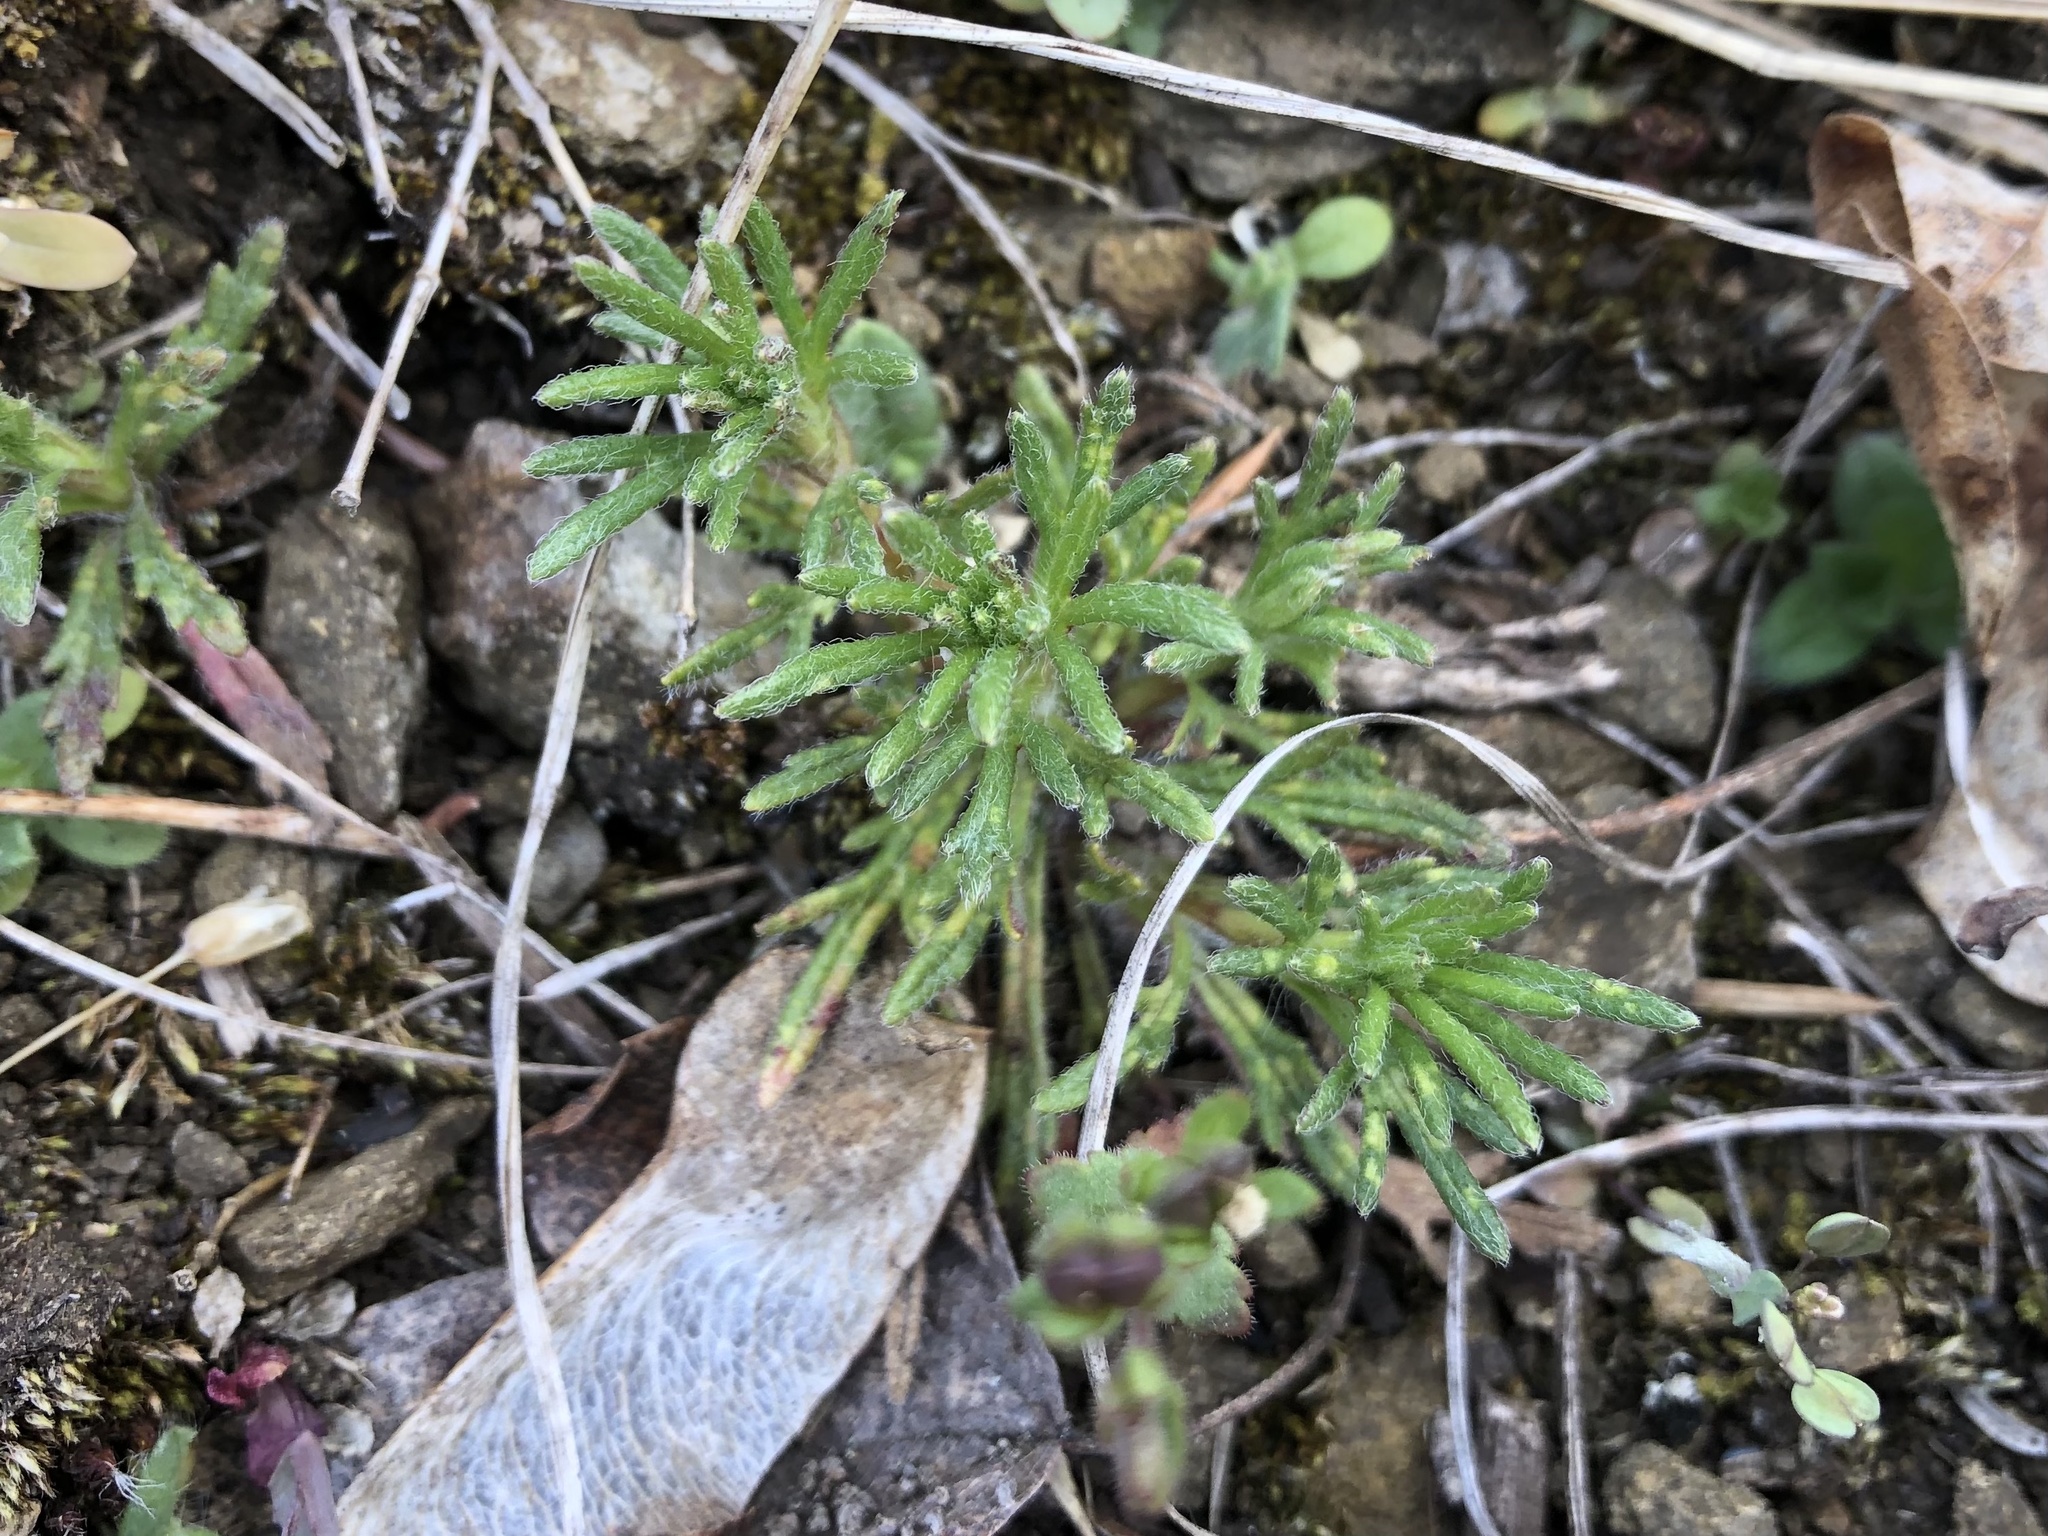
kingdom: Plantae
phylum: Tracheophyta
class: Magnoliopsida
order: Lamiales
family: Lamiaceae
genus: Ajuga
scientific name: Ajuga chamaepitys
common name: Ground-pine
